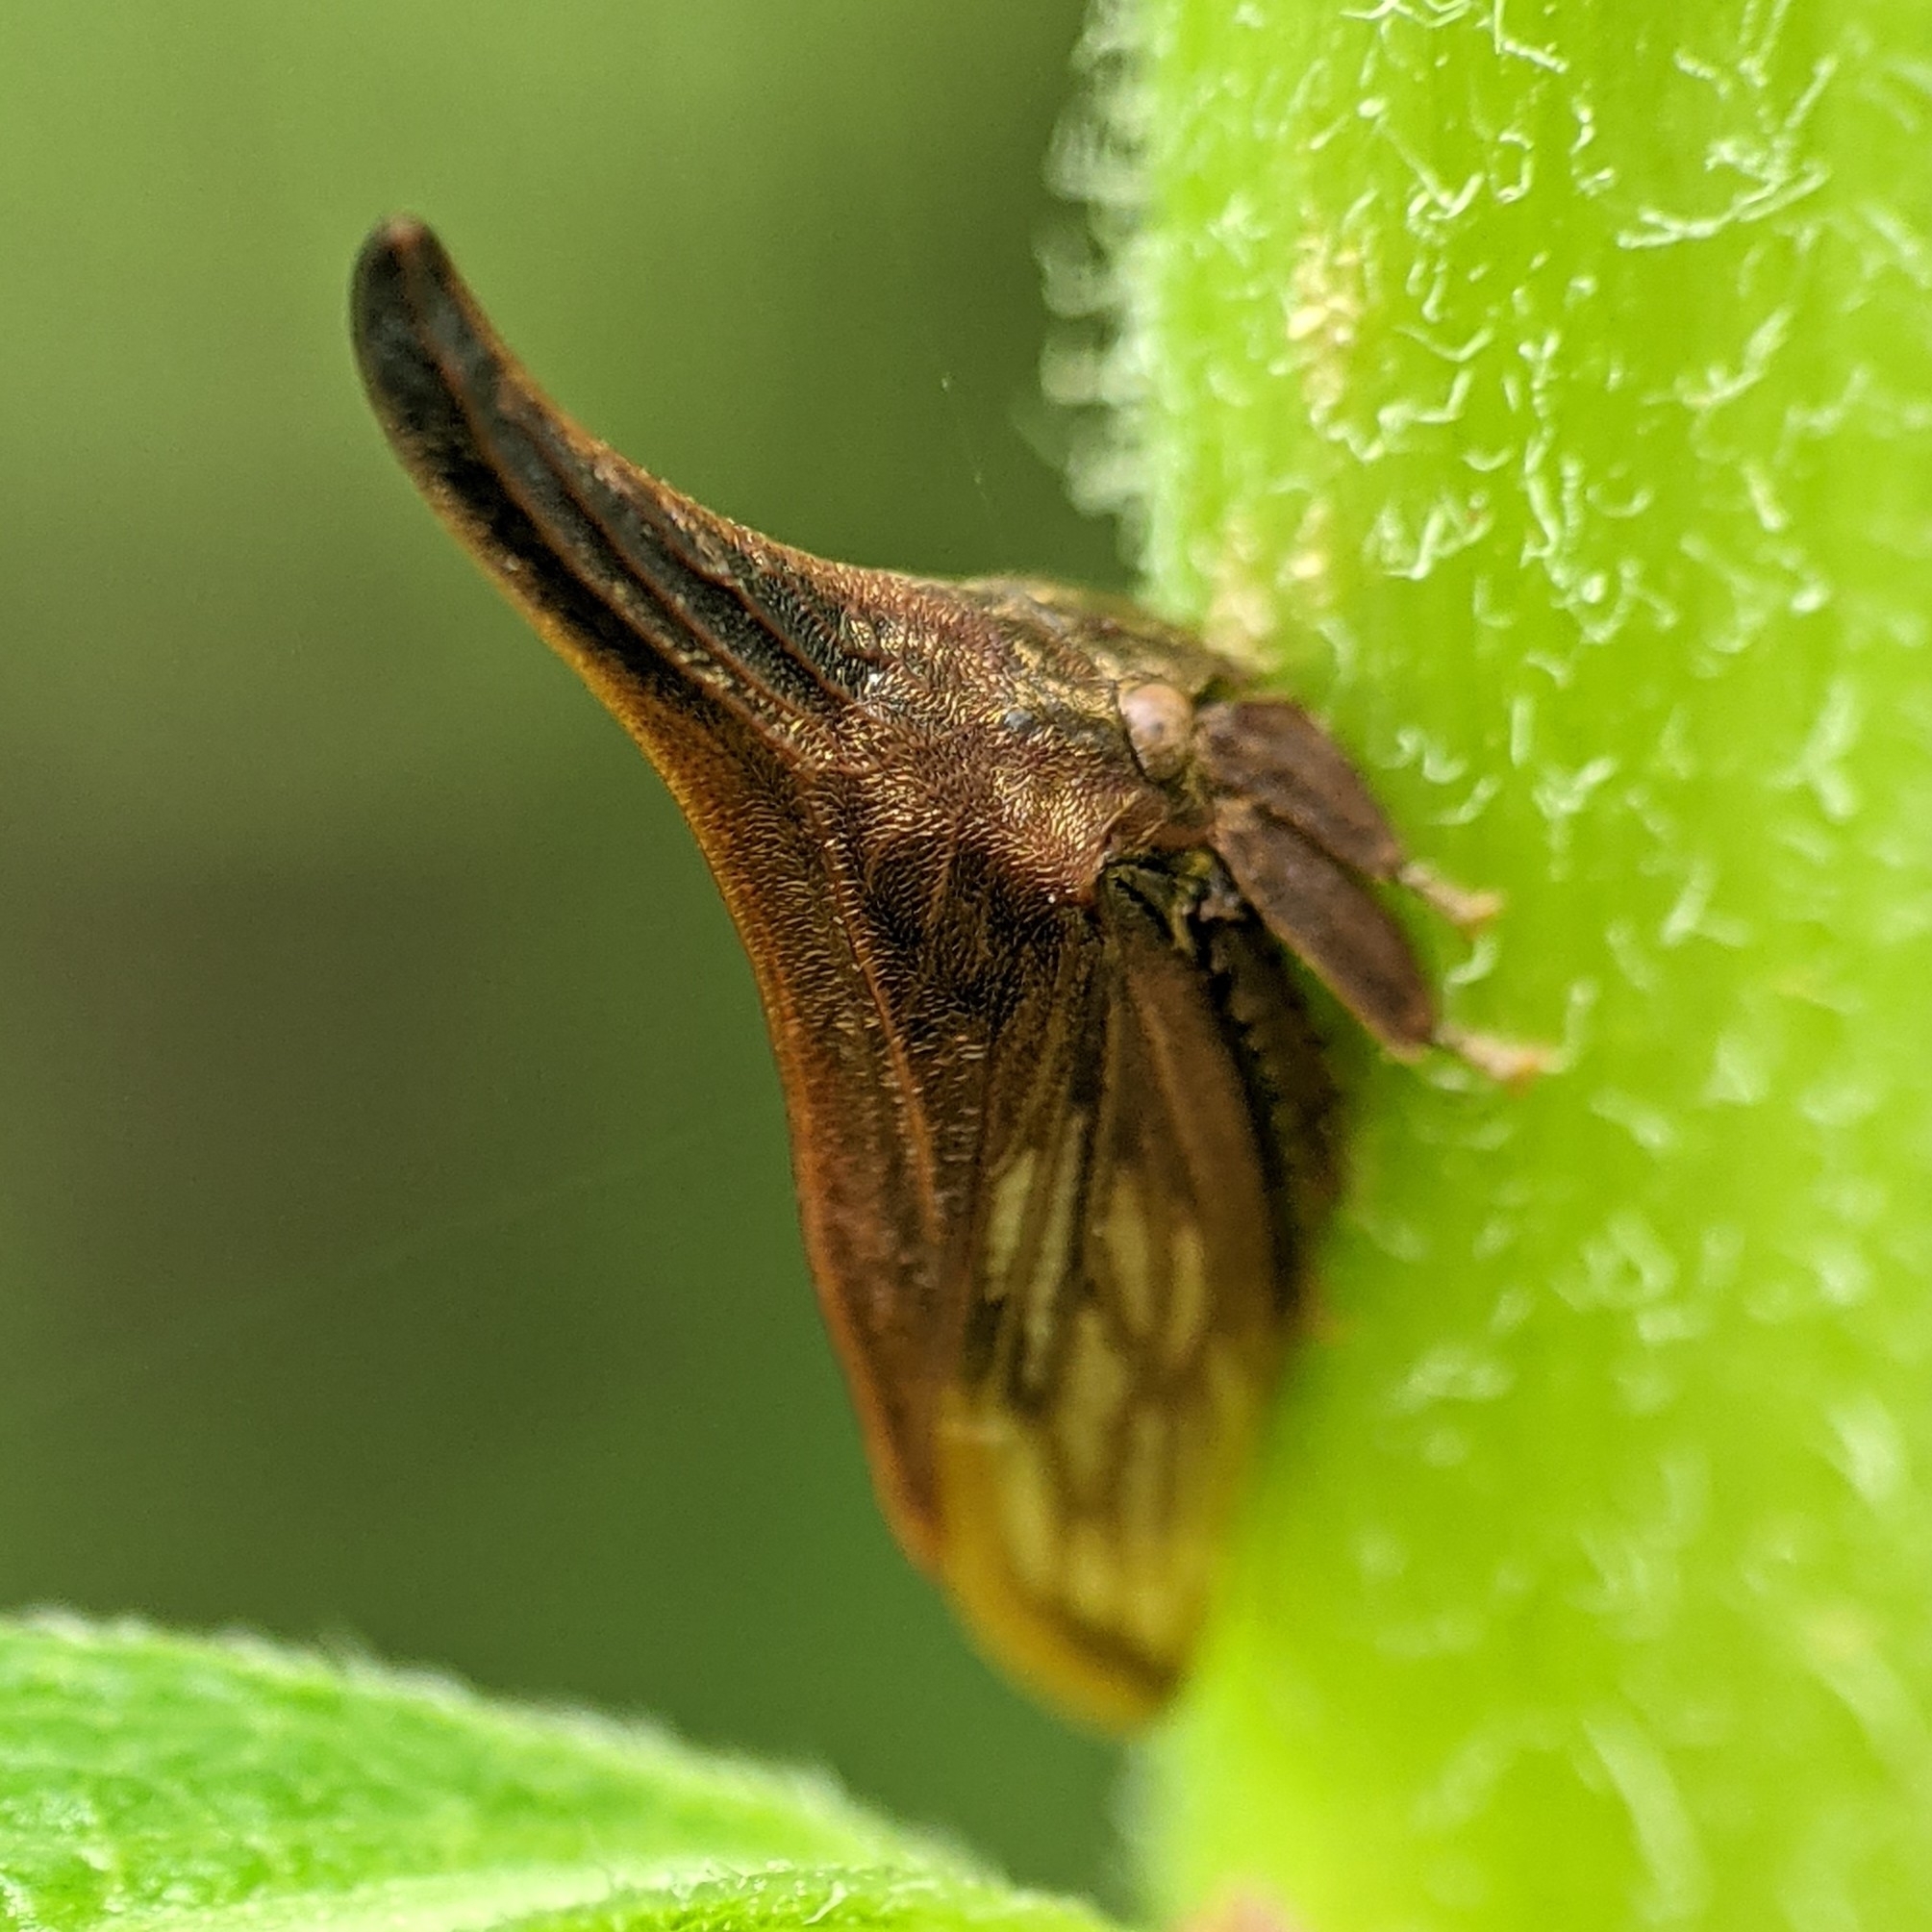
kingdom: Animalia
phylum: Arthropoda
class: Insecta
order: Hemiptera
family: Membracidae
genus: Enchenopa
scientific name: Enchenopa latipes
